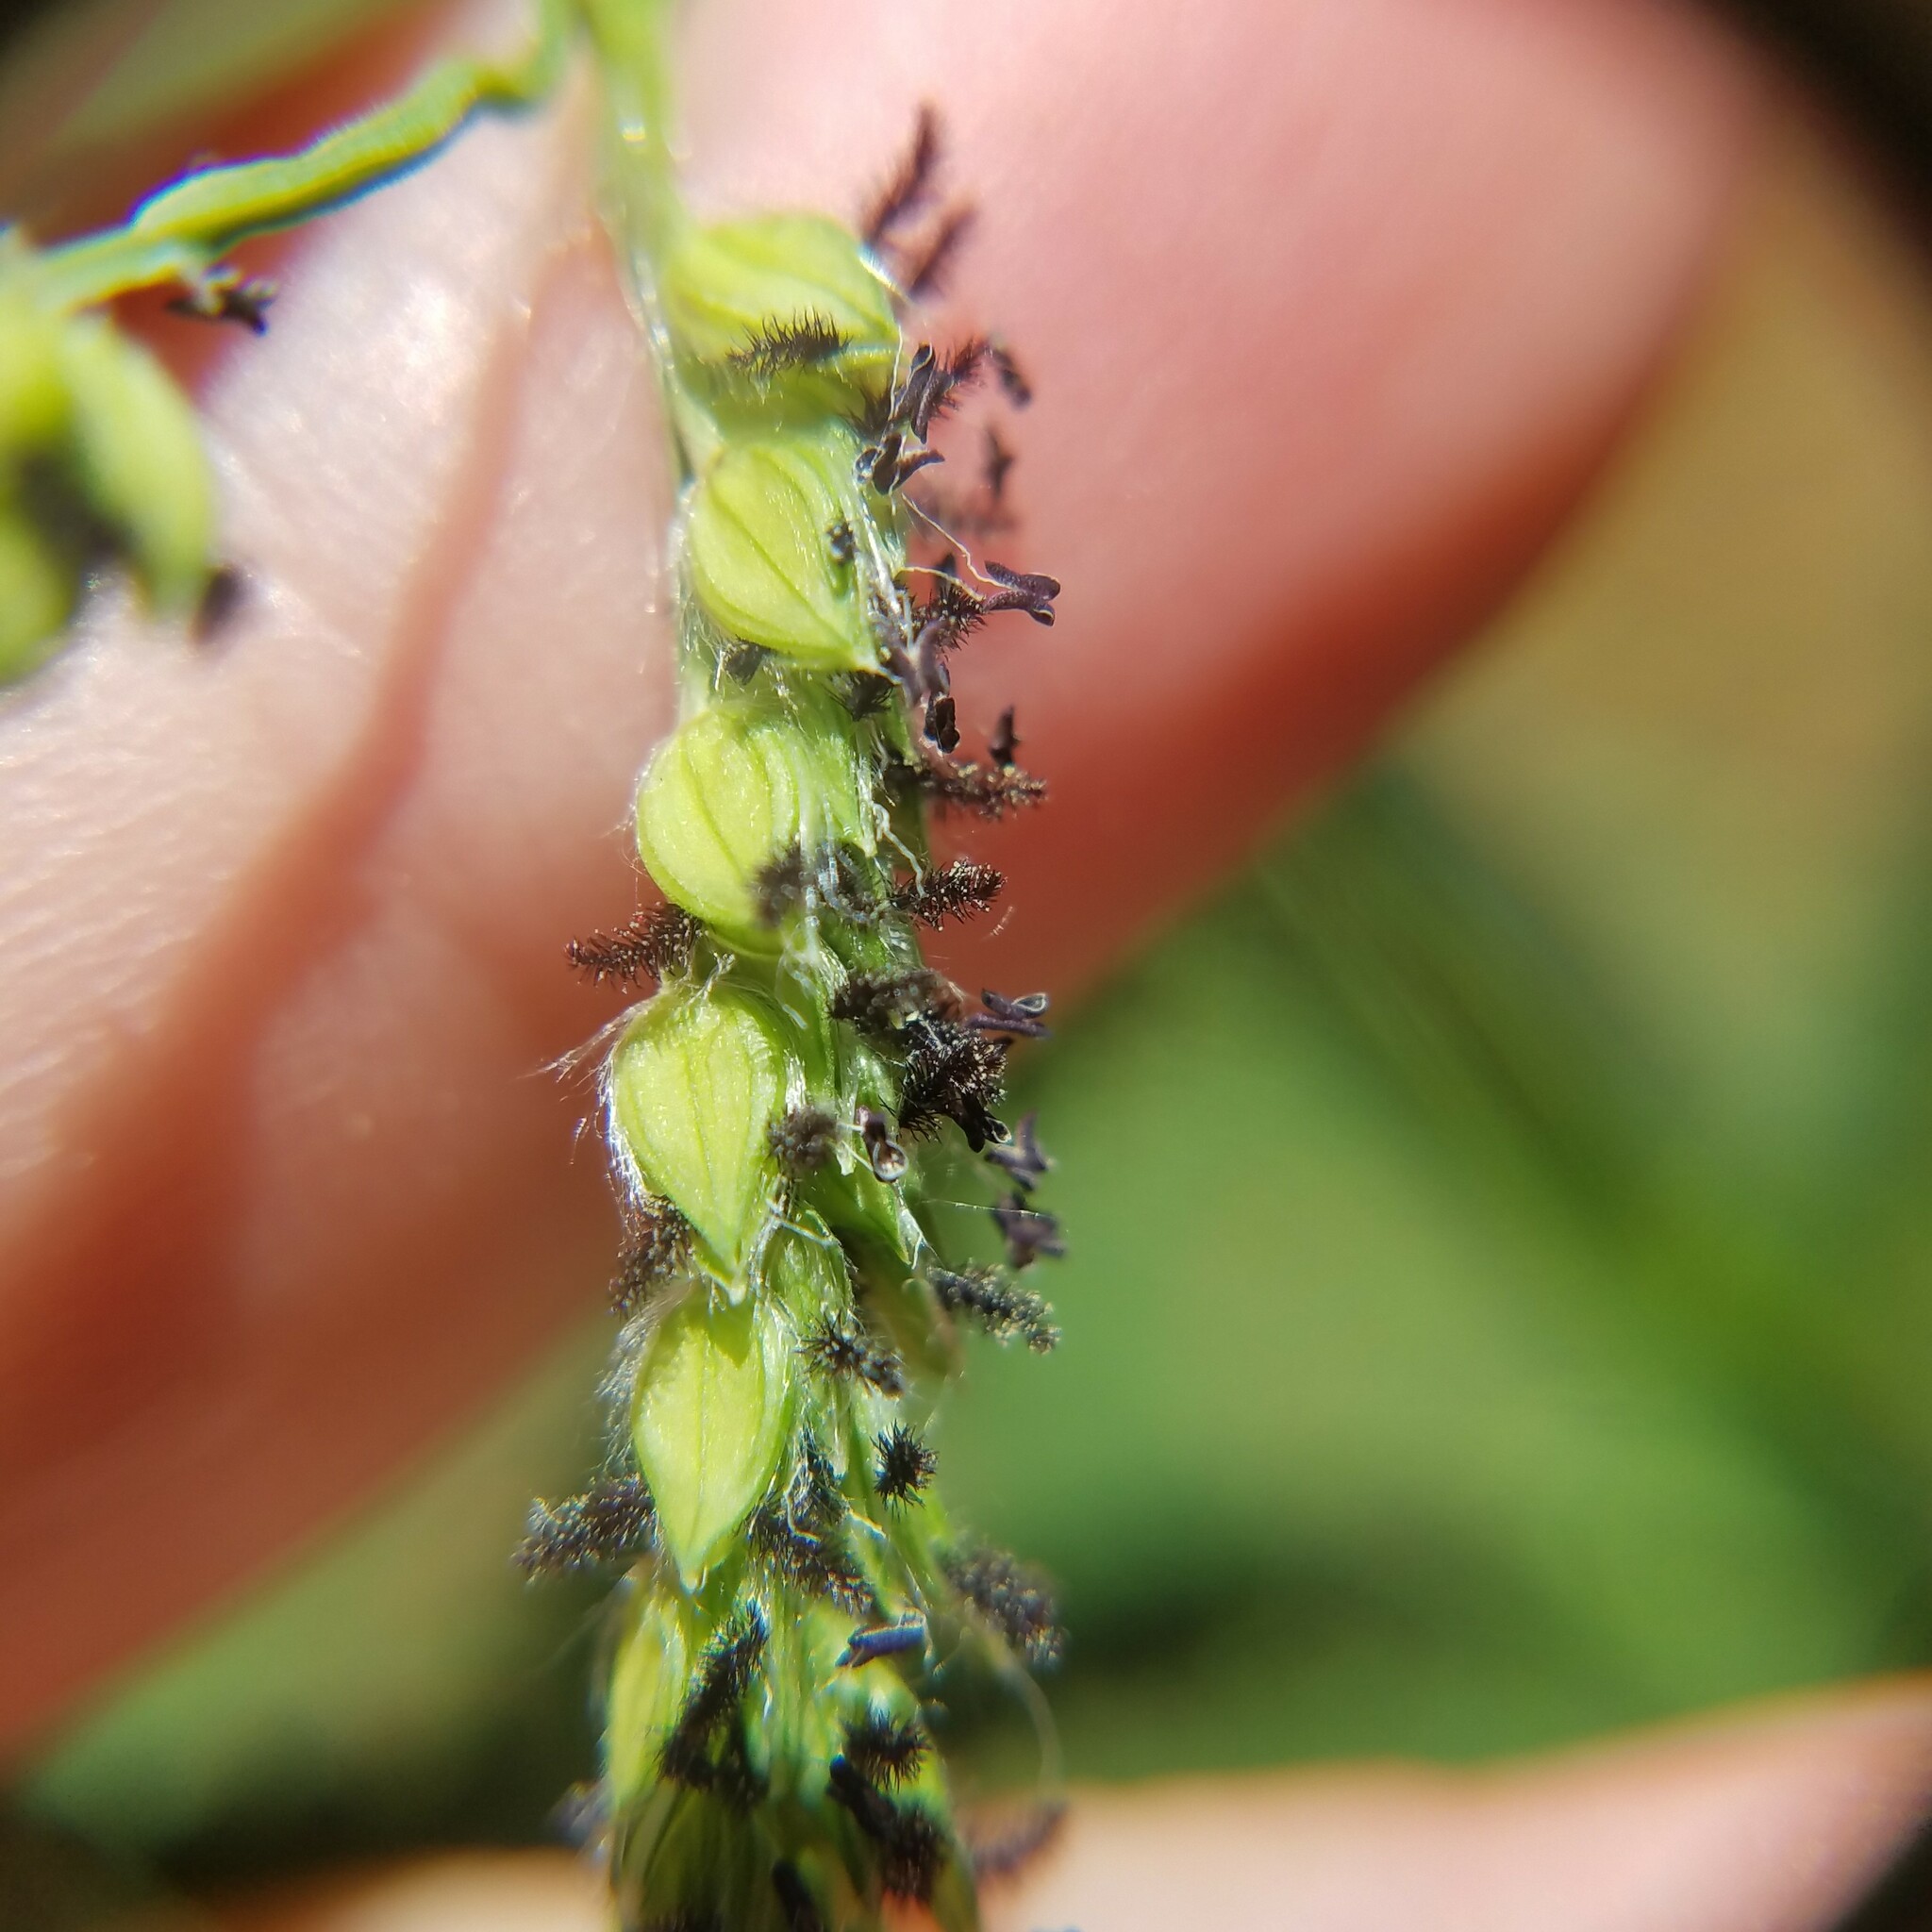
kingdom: Plantae
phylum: Tracheophyta
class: Liliopsida
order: Poales
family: Poaceae
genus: Paspalum
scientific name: Paspalum dilatatum
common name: Dallisgrass
